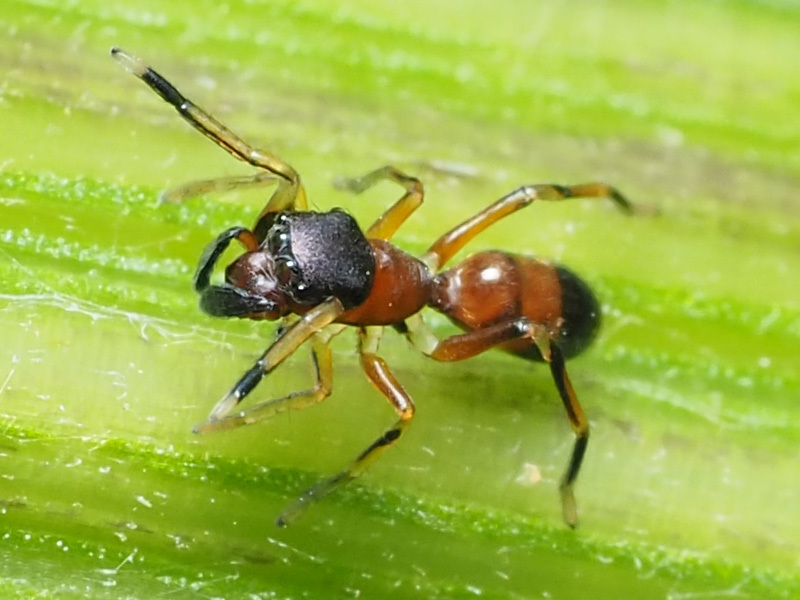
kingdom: Animalia
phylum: Arthropoda
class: Arachnida
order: Araneae
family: Salticidae
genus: Myrmarachne
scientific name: Myrmarachne formicaria
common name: Ant mimic jumping spider
